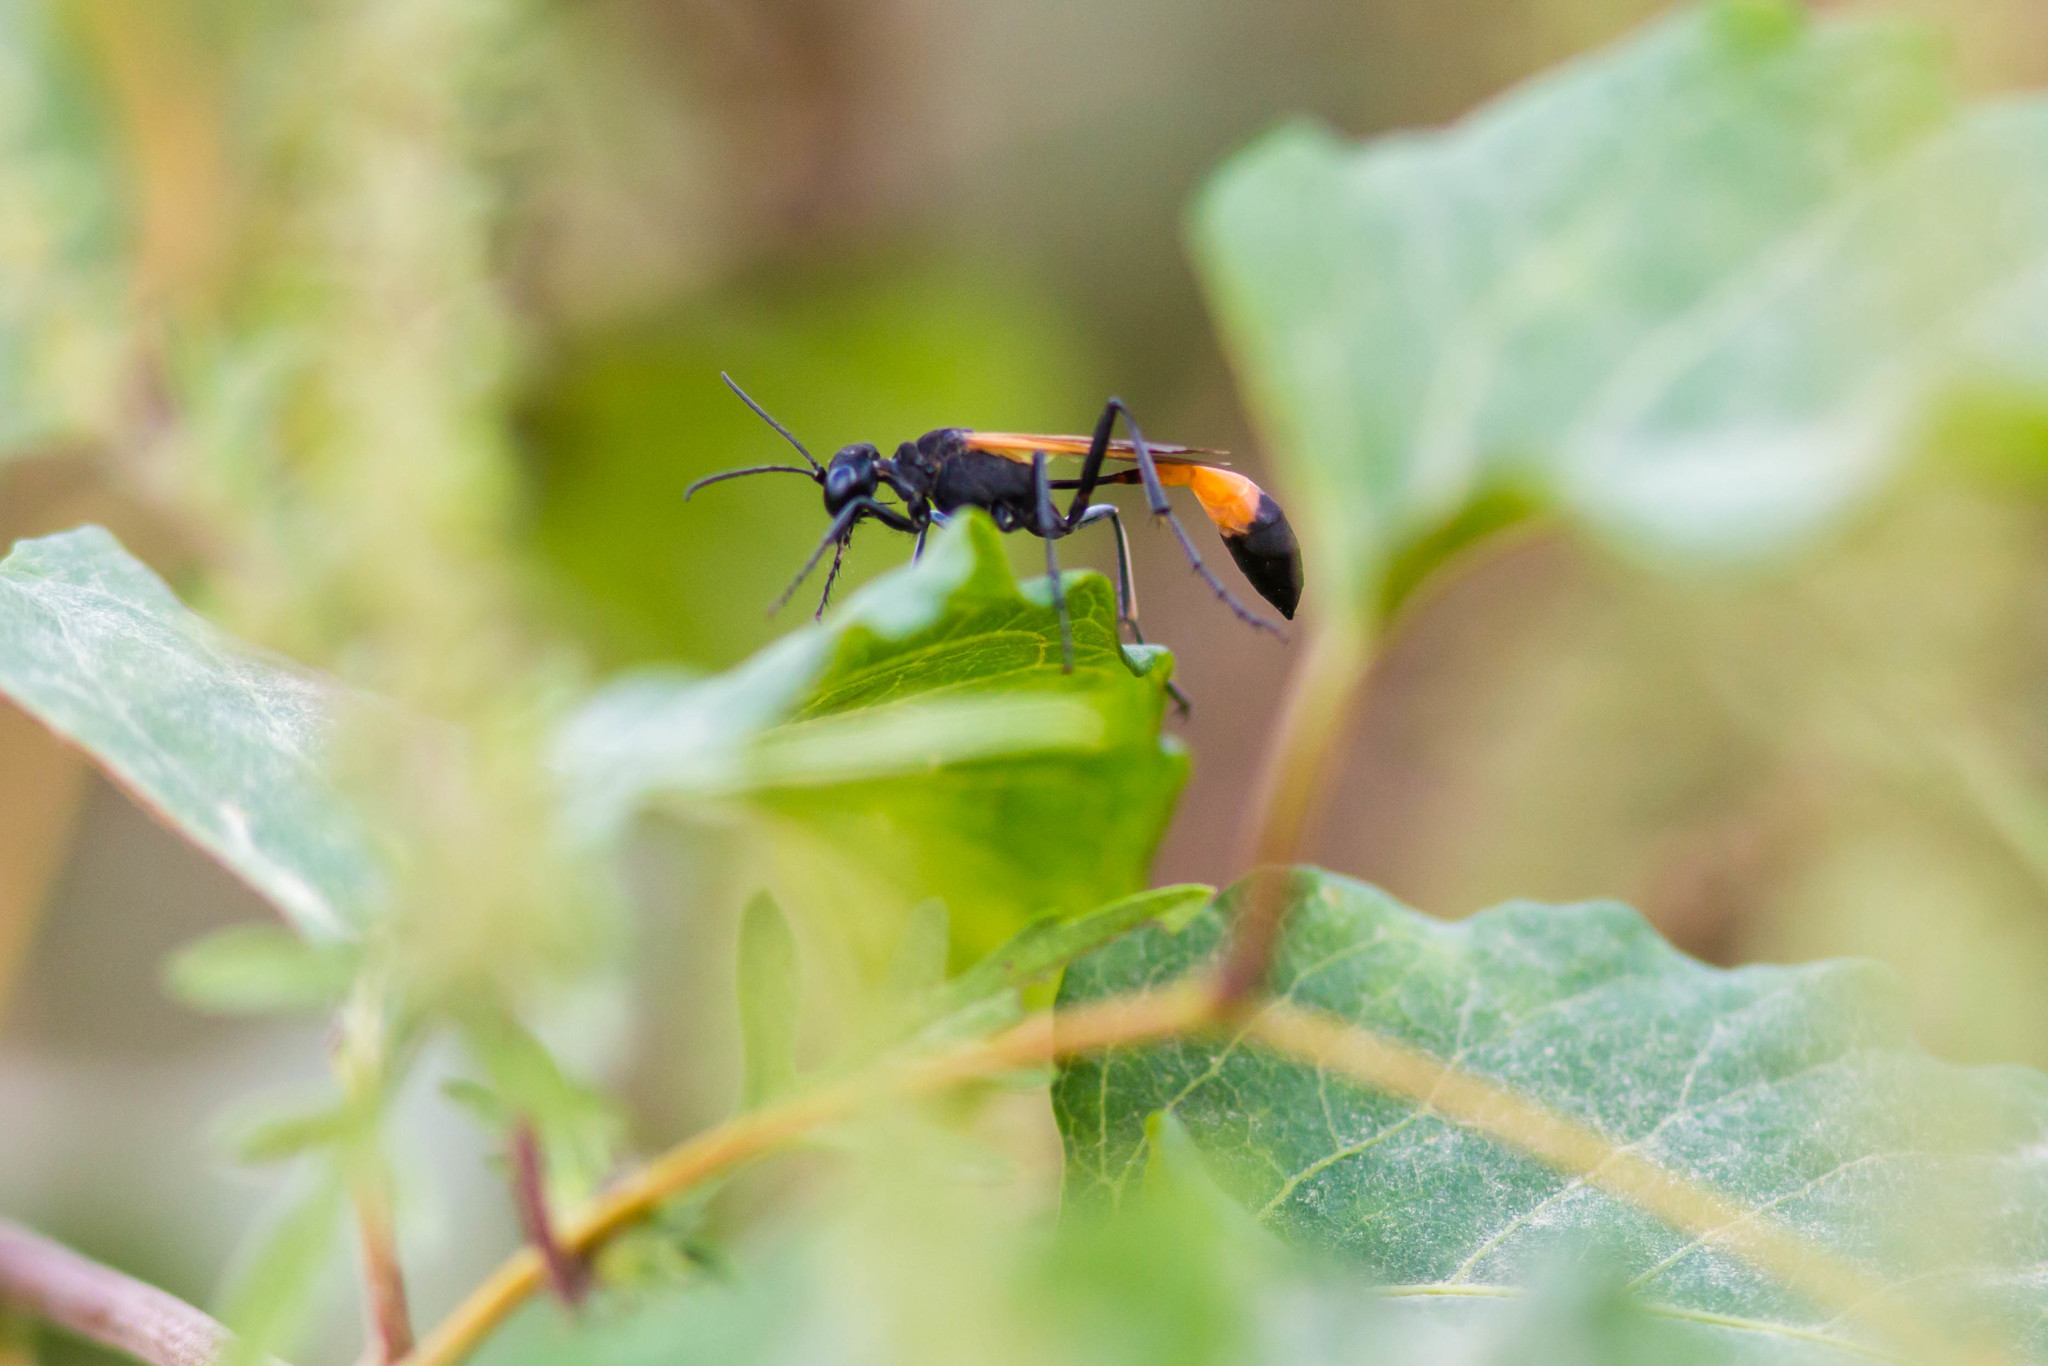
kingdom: Animalia
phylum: Arthropoda
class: Insecta
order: Hymenoptera
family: Sphecidae
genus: Ammophila
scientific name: Ammophila pictipennis
